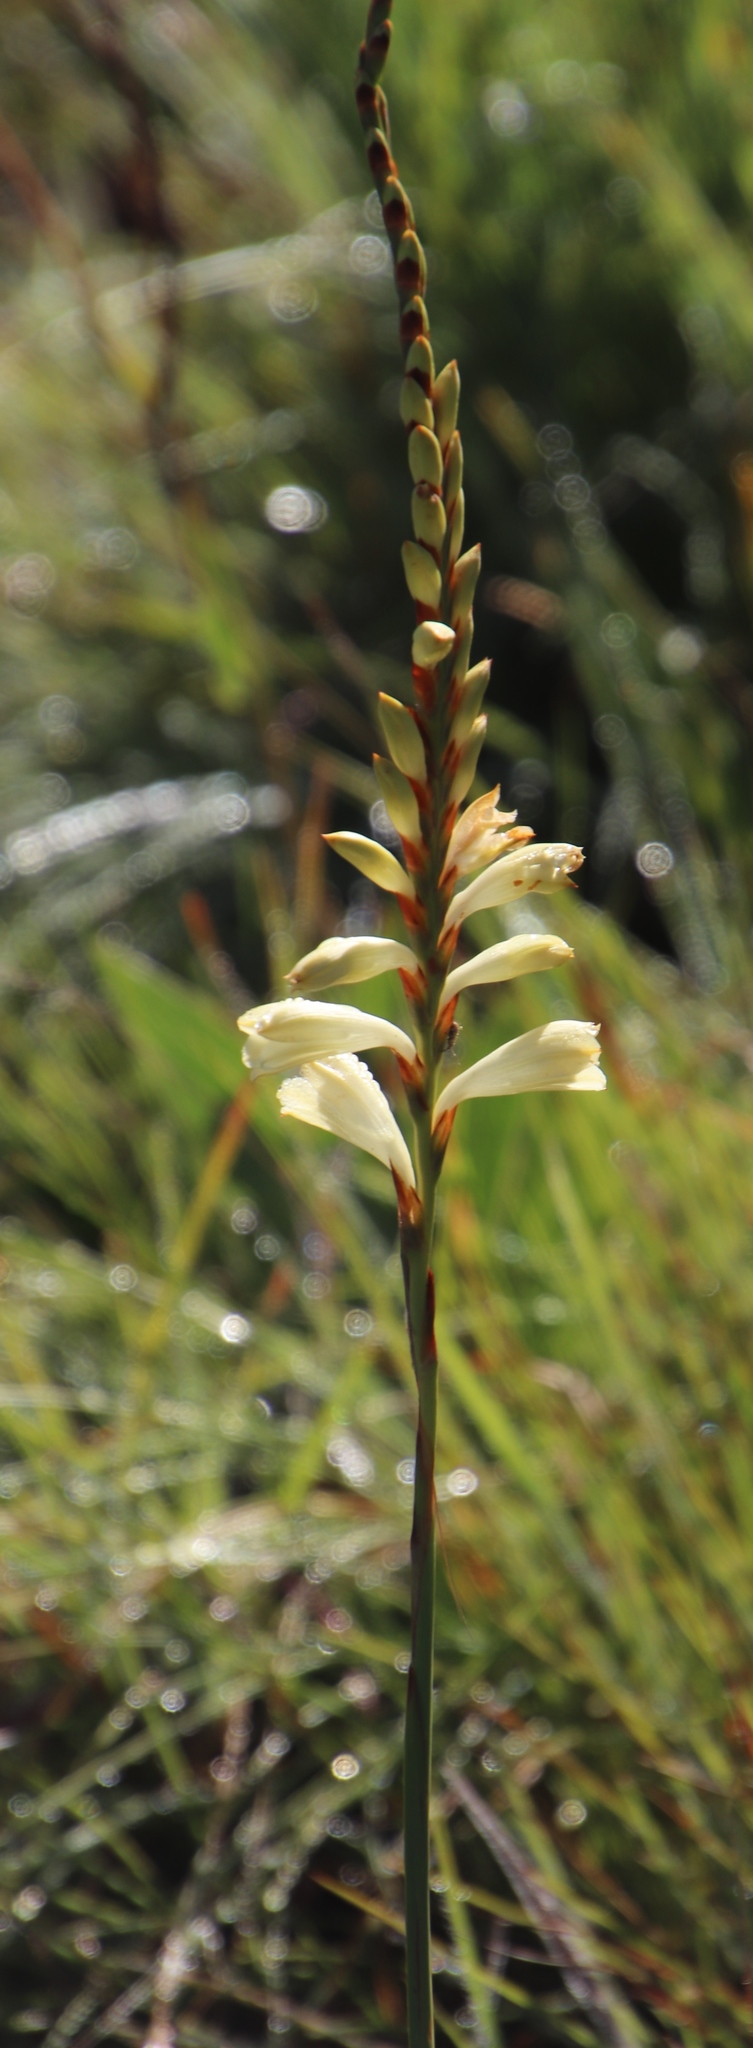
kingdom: Plantae
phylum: Tracheophyta
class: Liliopsida
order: Asparagales
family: Iridaceae
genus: Watsonia
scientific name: Watsonia watsonioides
